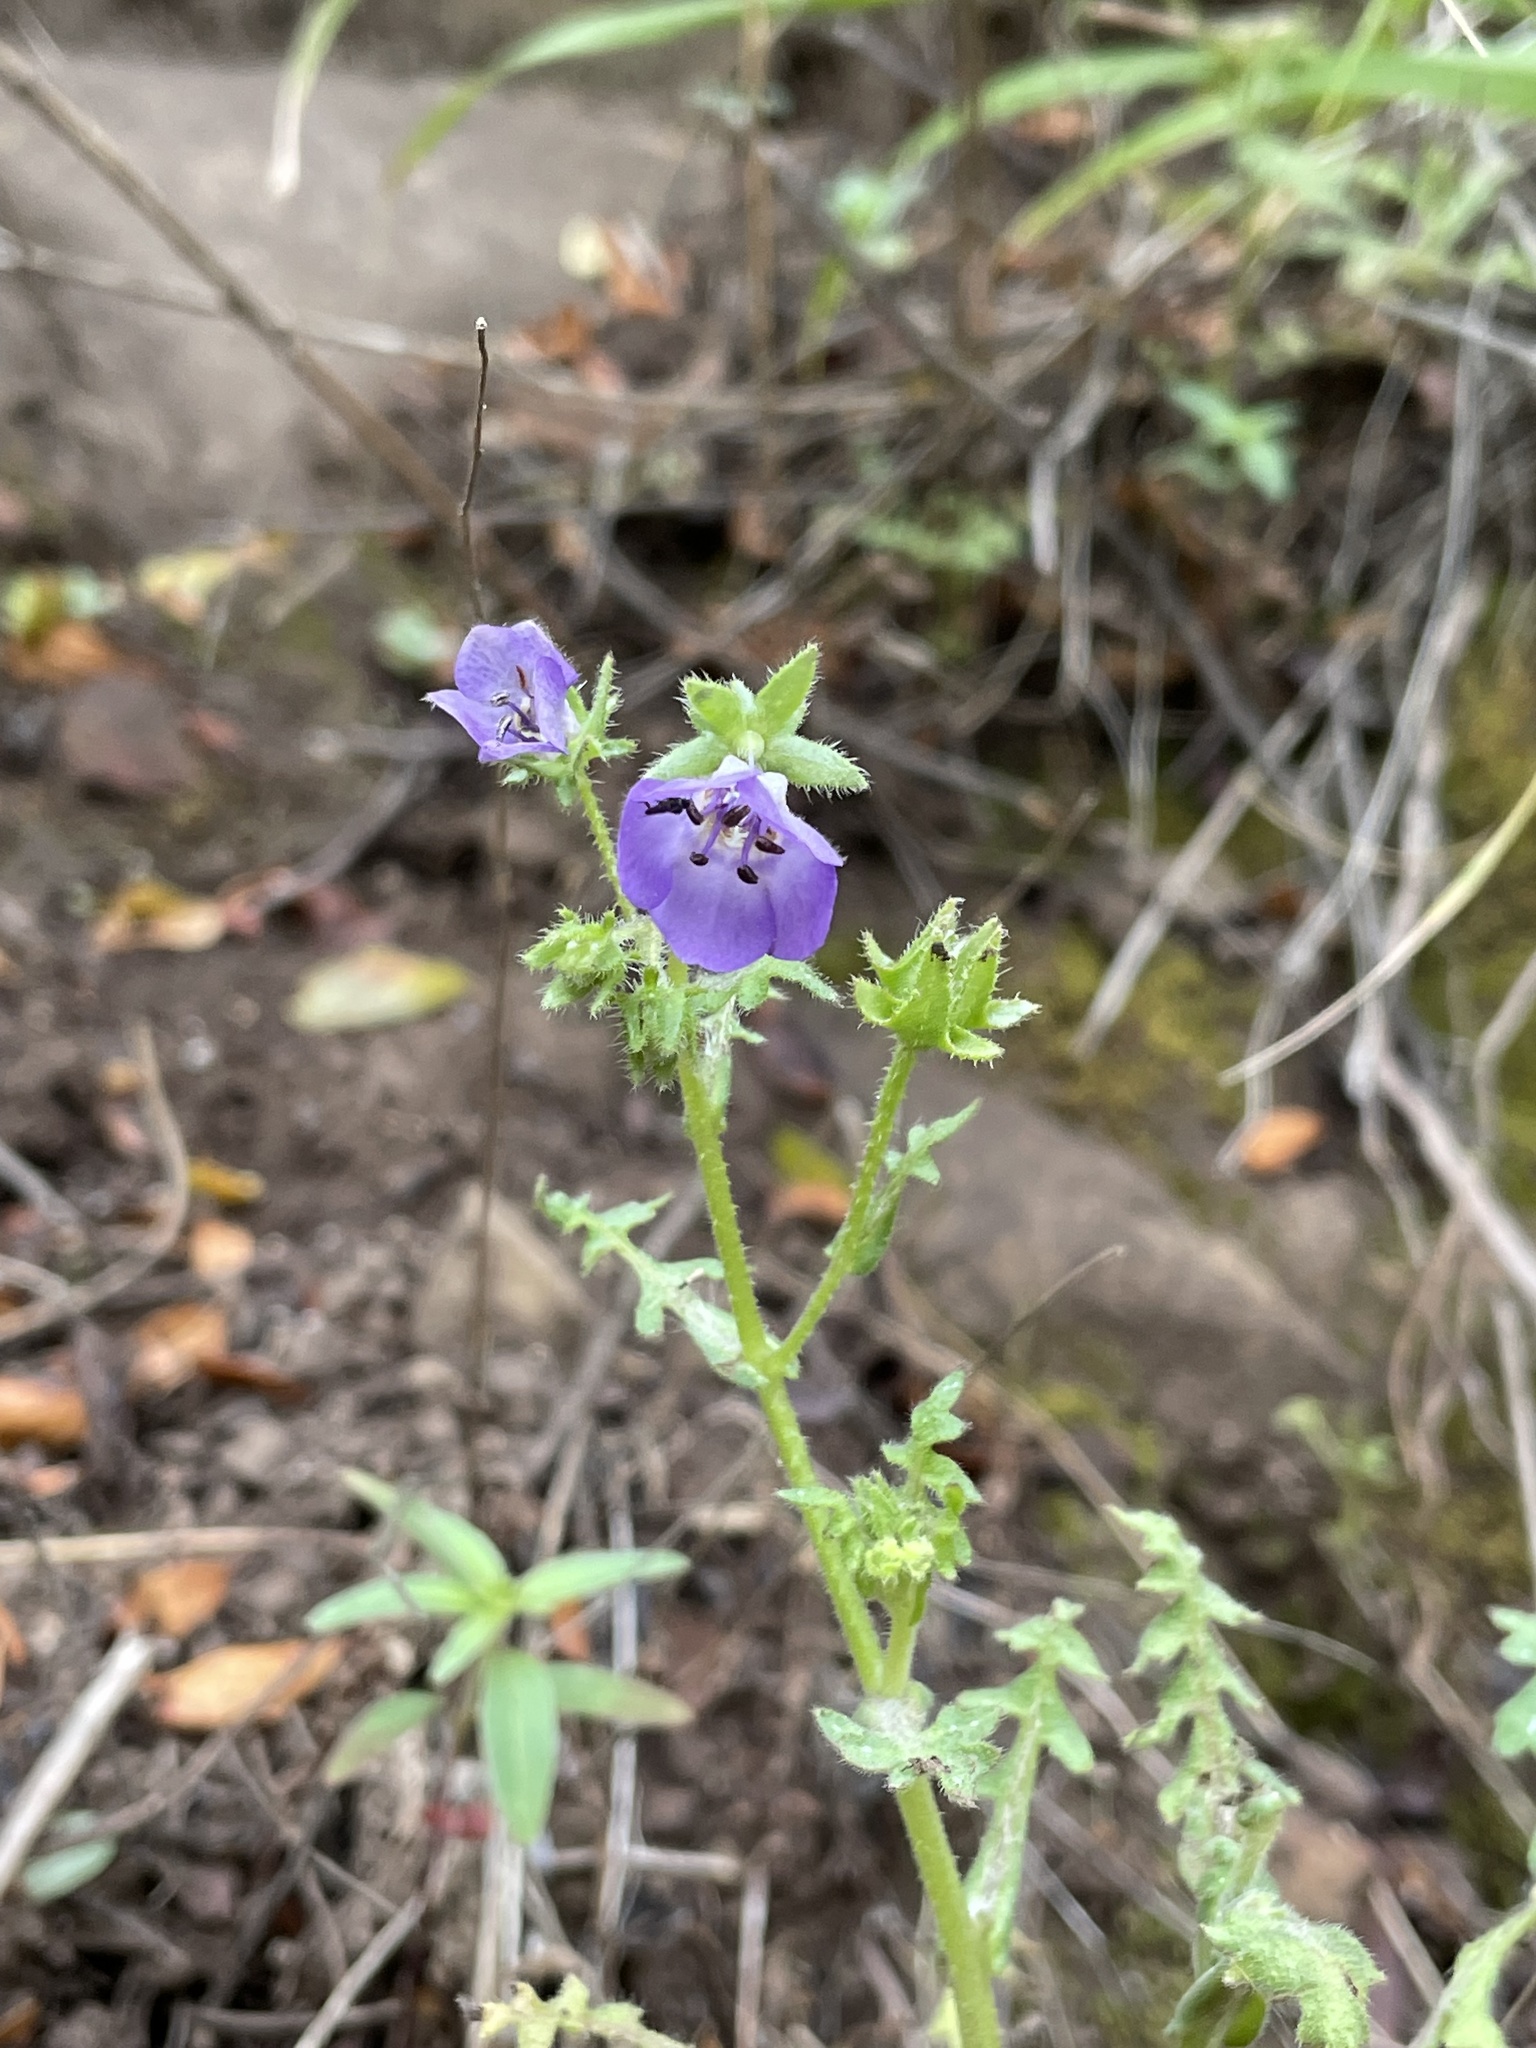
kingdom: Plantae
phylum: Tracheophyta
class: Magnoliopsida
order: Boraginales
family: Hydrophyllaceae
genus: Pholistoma
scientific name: Pholistoma auritum
